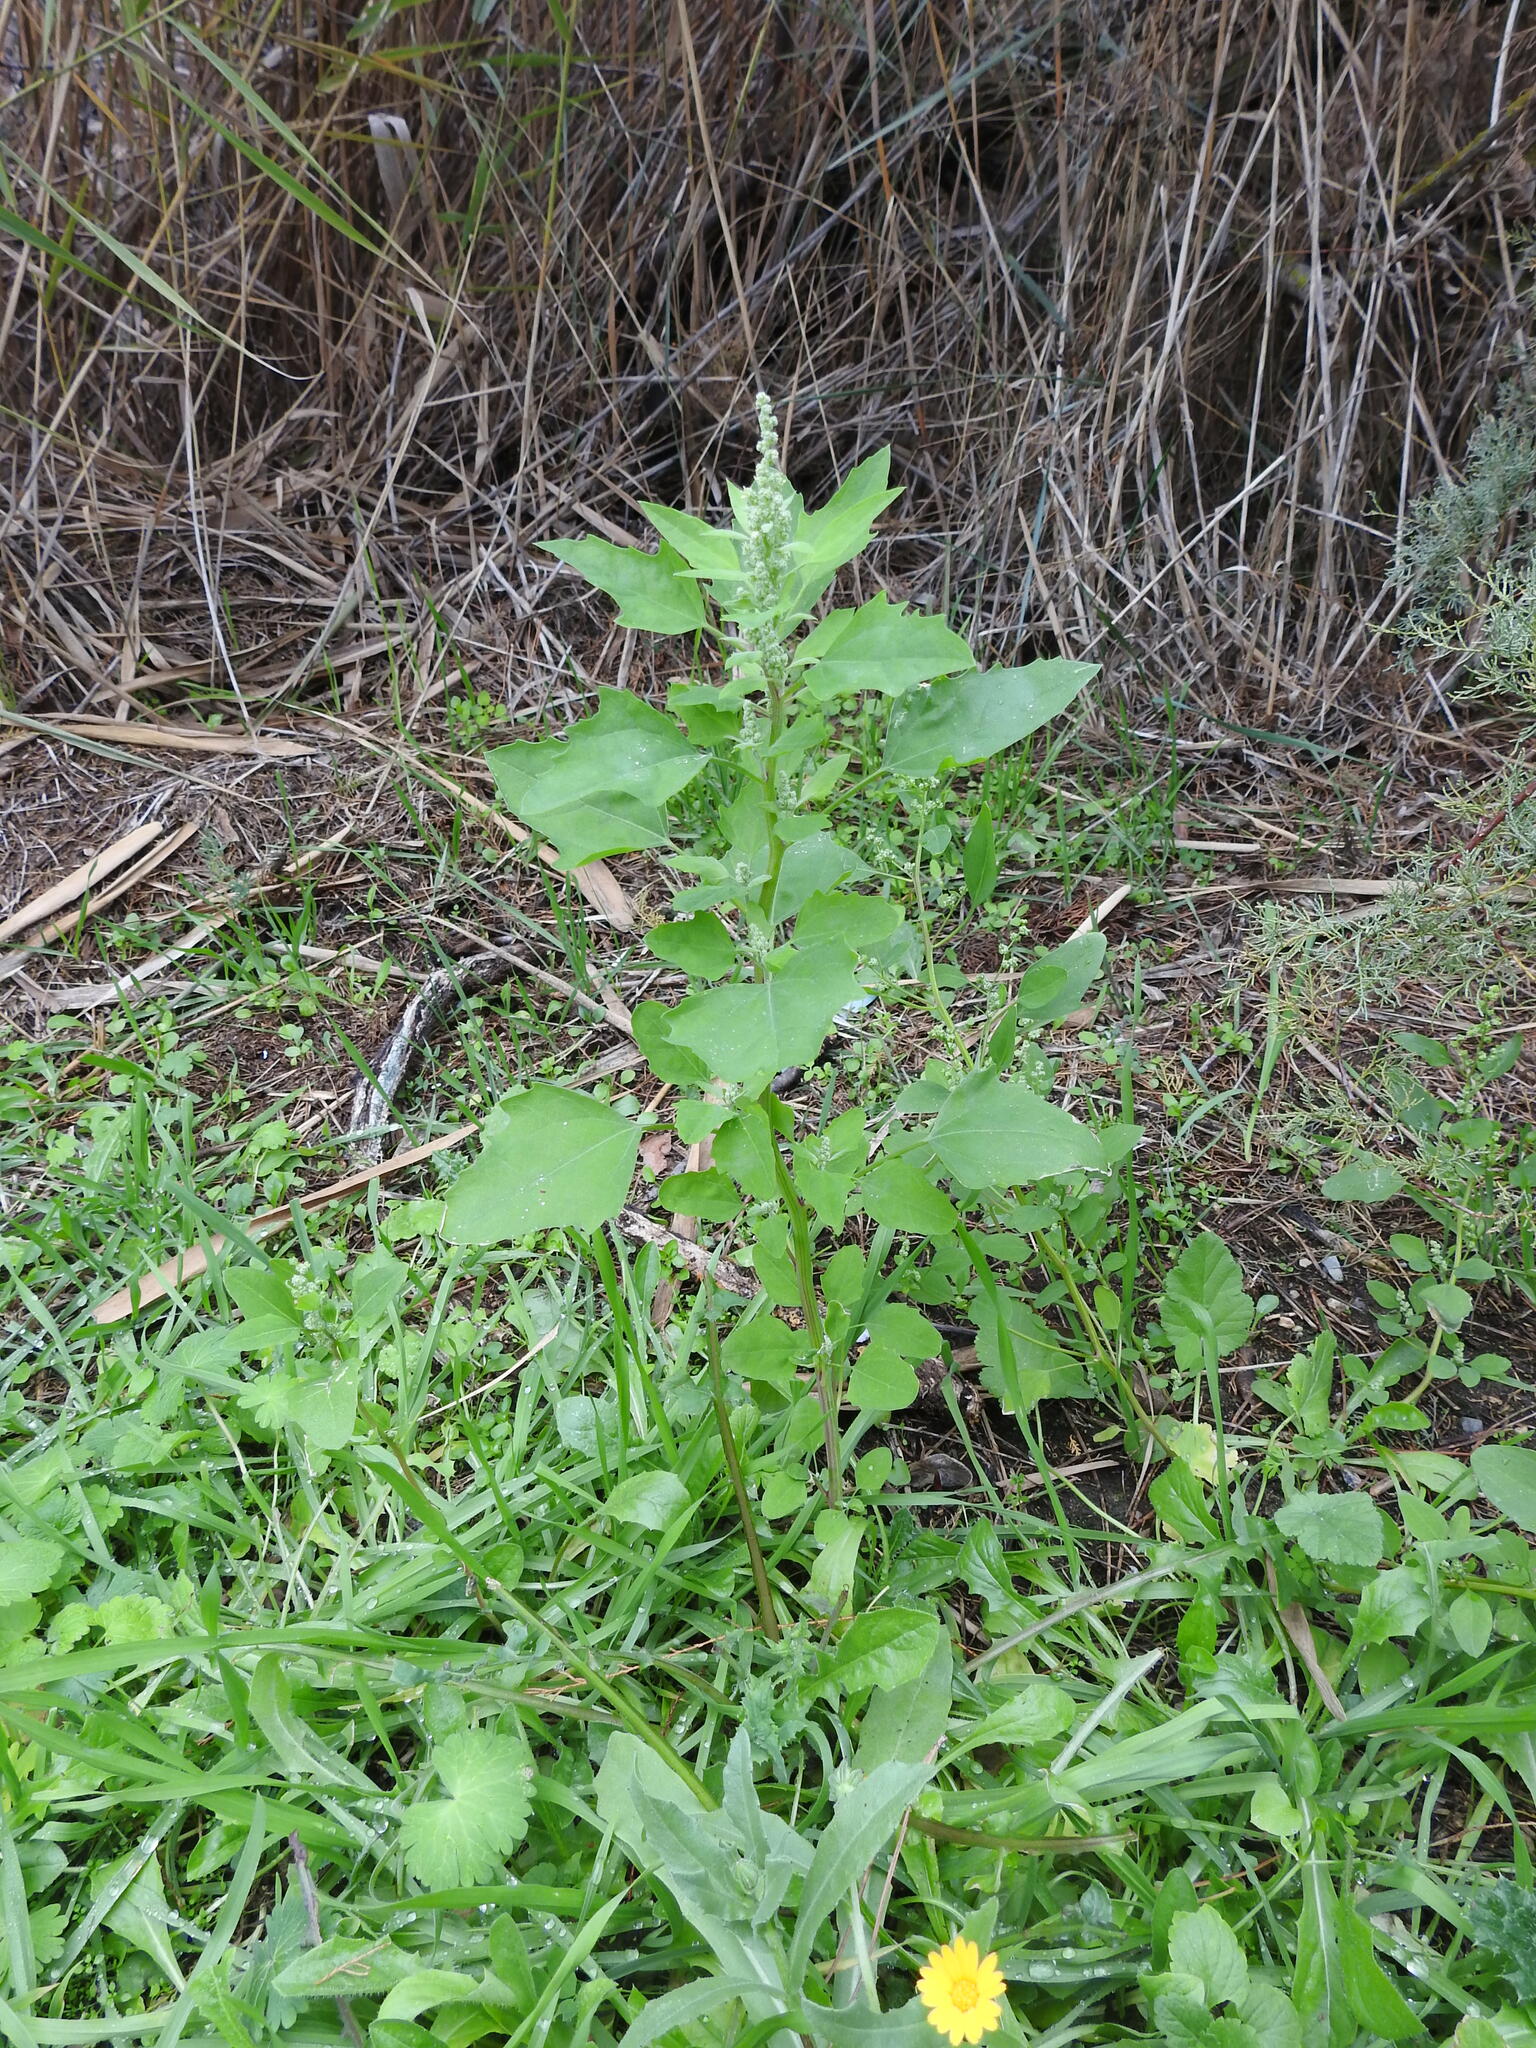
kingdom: Plantae
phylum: Tracheophyta
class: Magnoliopsida
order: Caryophyllales
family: Amaranthaceae
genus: Chenopodium
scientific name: Chenopodium album
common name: Fat-hen
